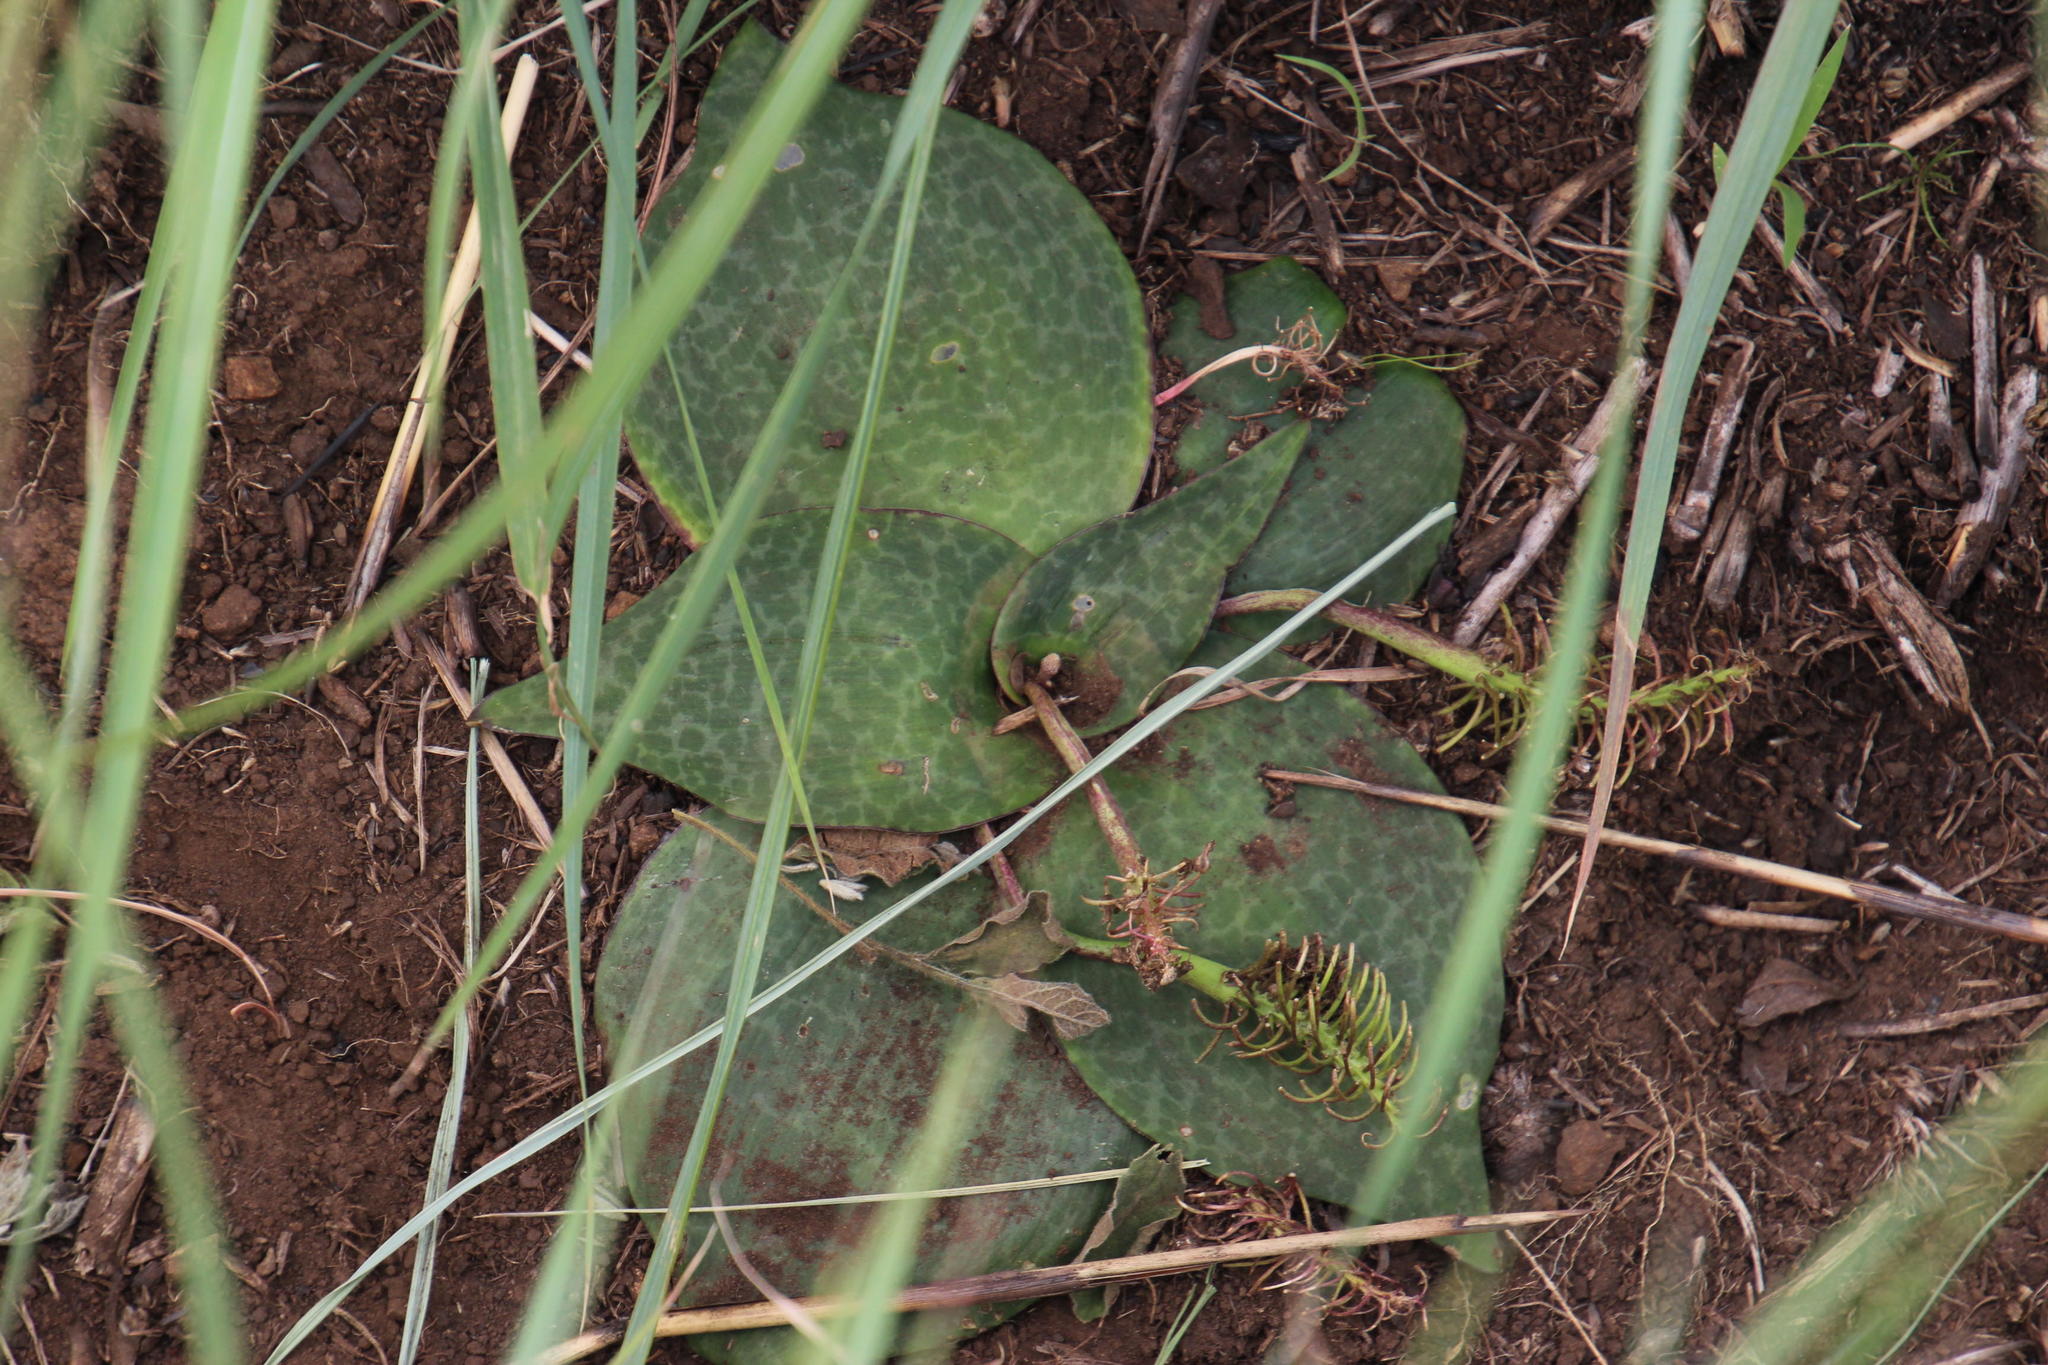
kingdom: Plantae
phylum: Tracheophyta
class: Liliopsida
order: Asparagales
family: Asparagaceae
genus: Ledebouria
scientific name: Ledebouria ovatifolia
